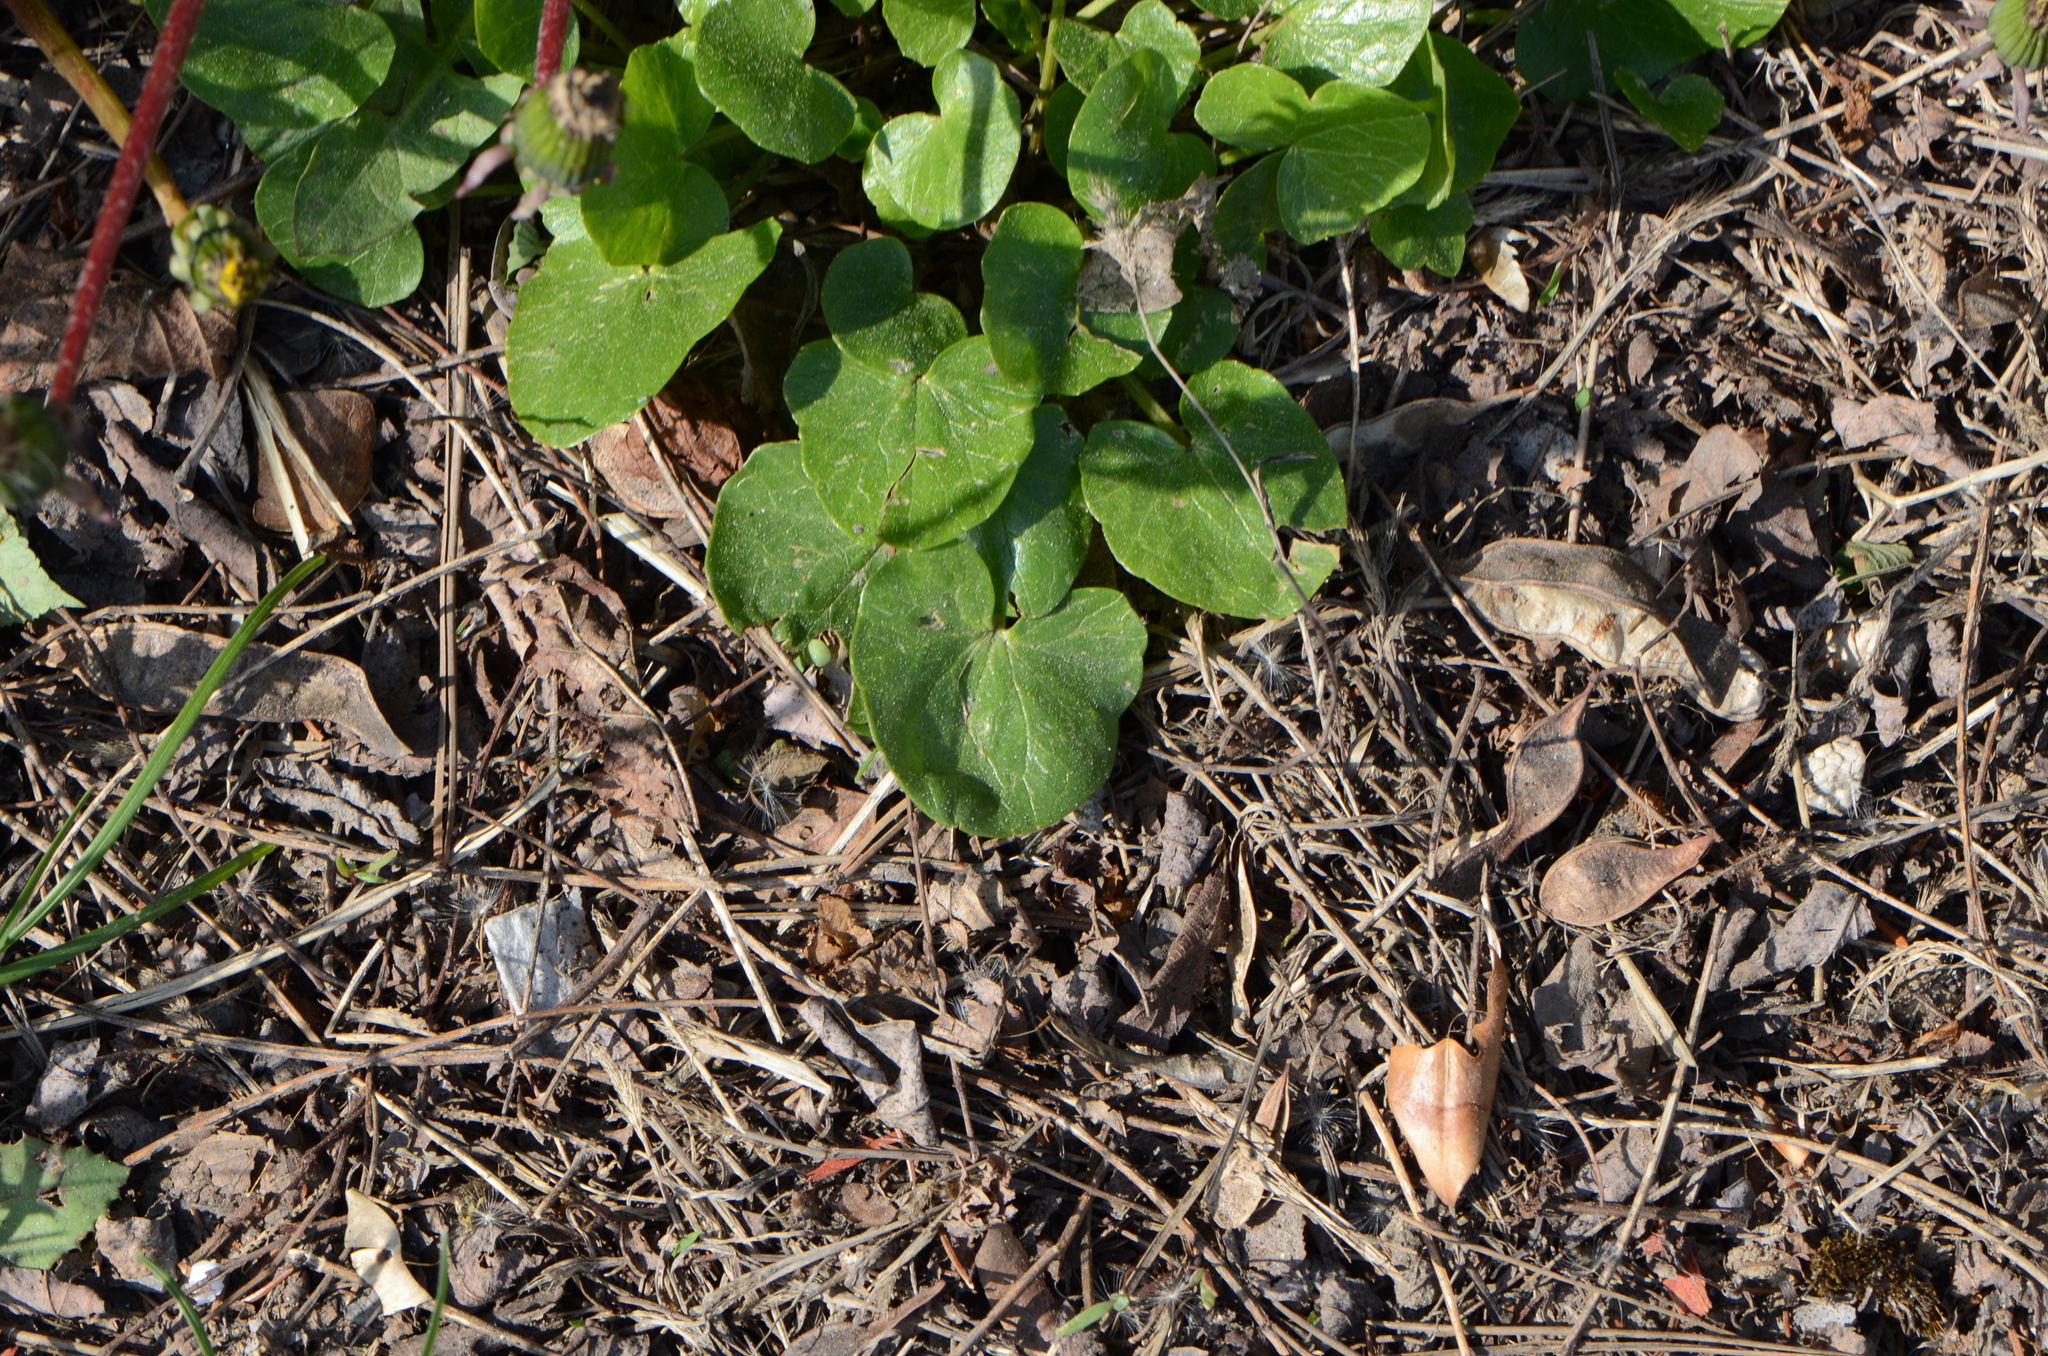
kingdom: Plantae
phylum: Tracheophyta
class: Magnoliopsida
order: Ranunculales
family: Ranunculaceae
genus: Ficaria
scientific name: Ficaria verna
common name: Lesser celandine
